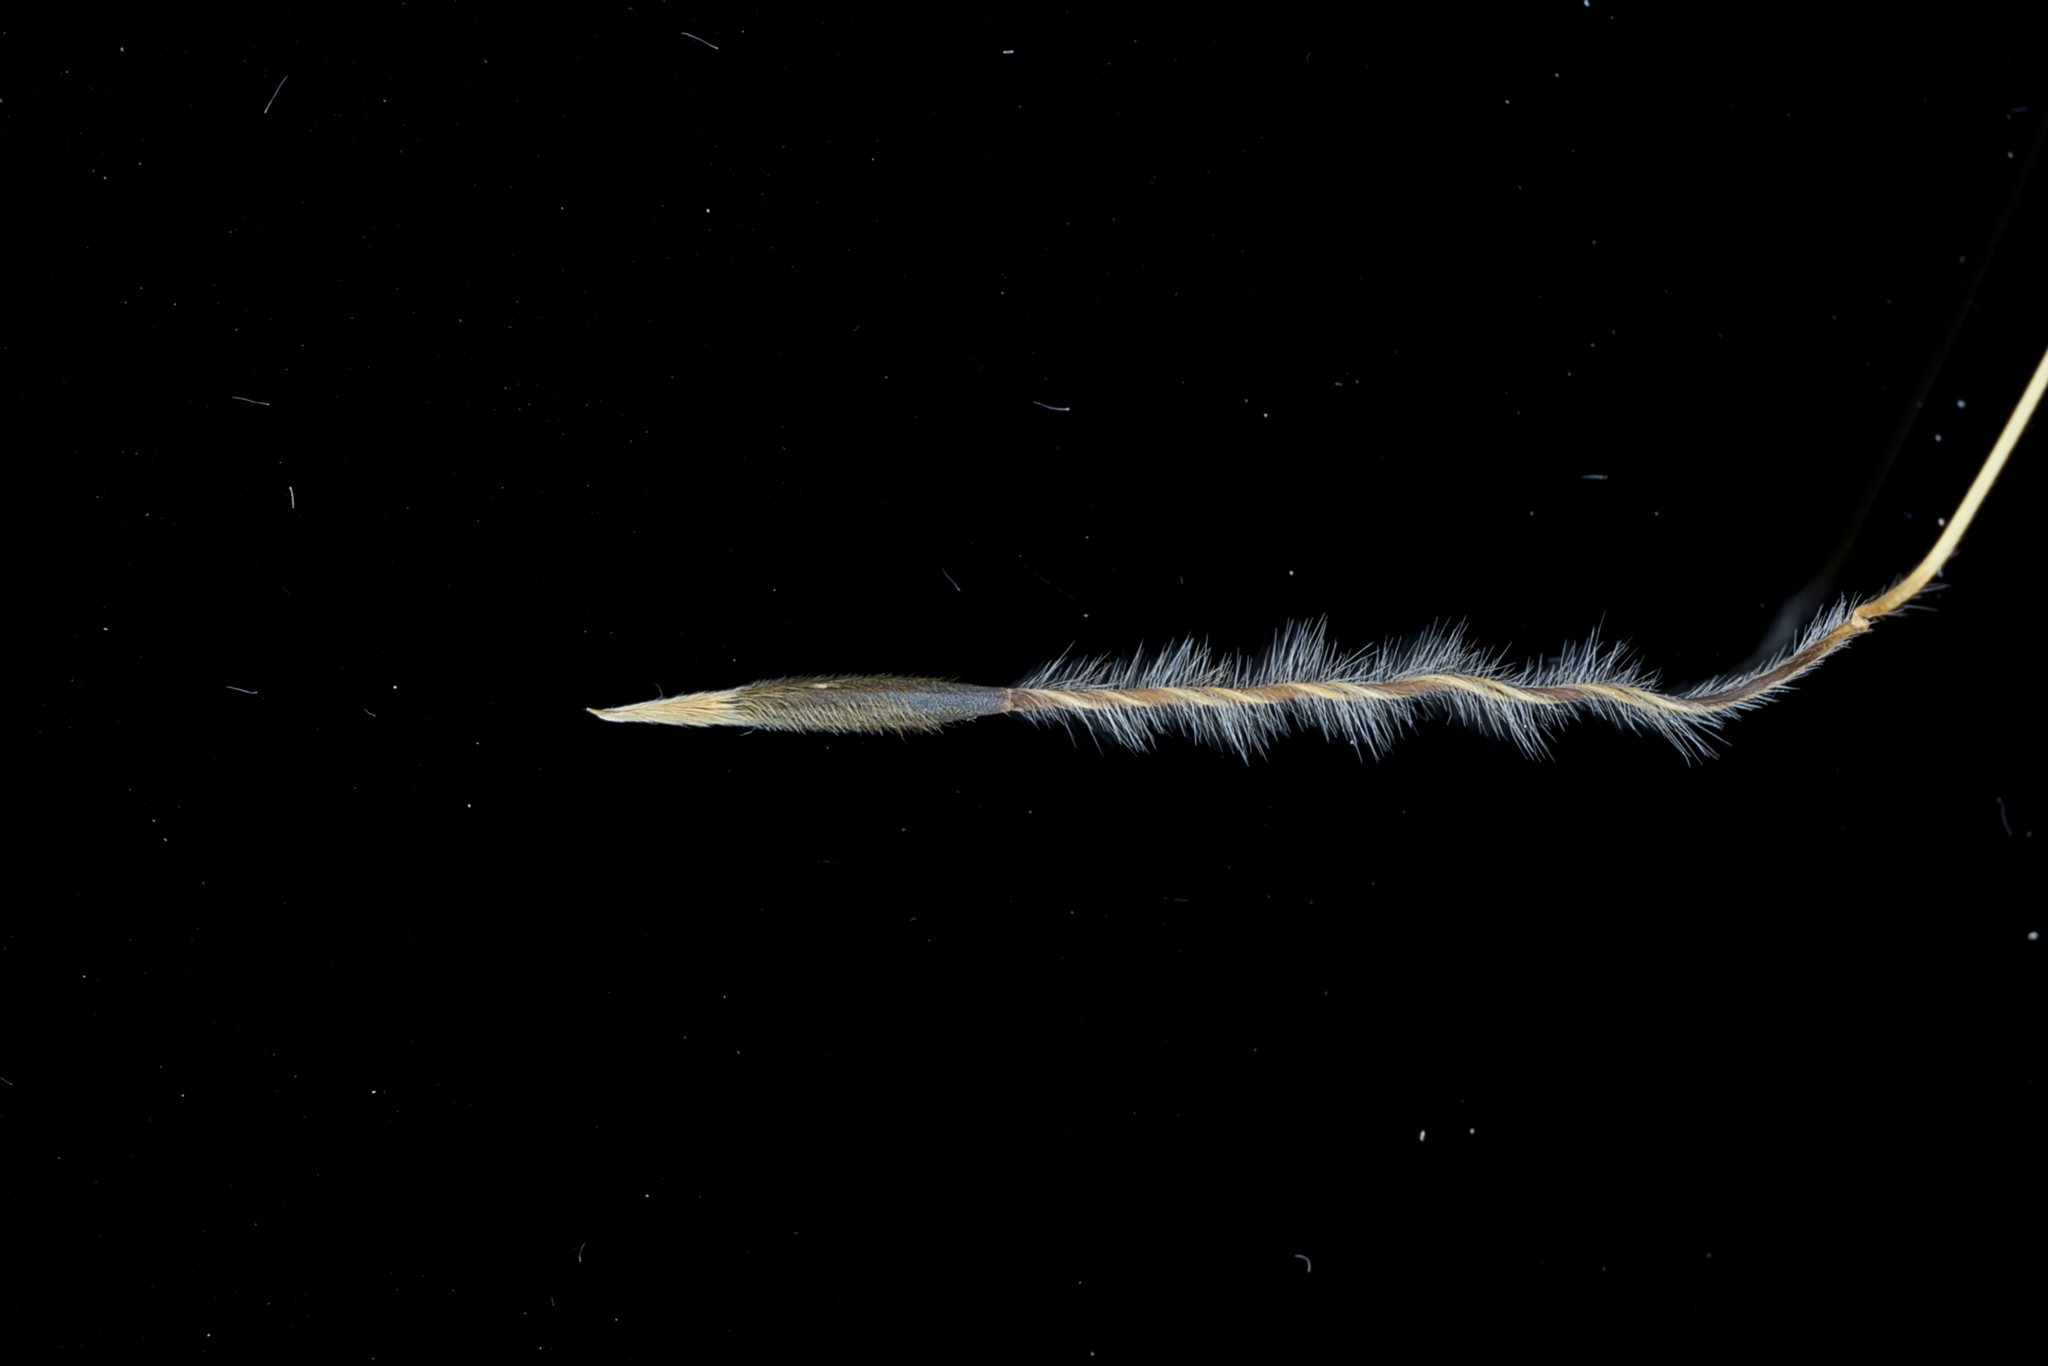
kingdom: Plantae
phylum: Tracheophyta
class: Liliopsida
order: Poales
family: Poaceae
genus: Austrostipa
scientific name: Austrostipa mollis
